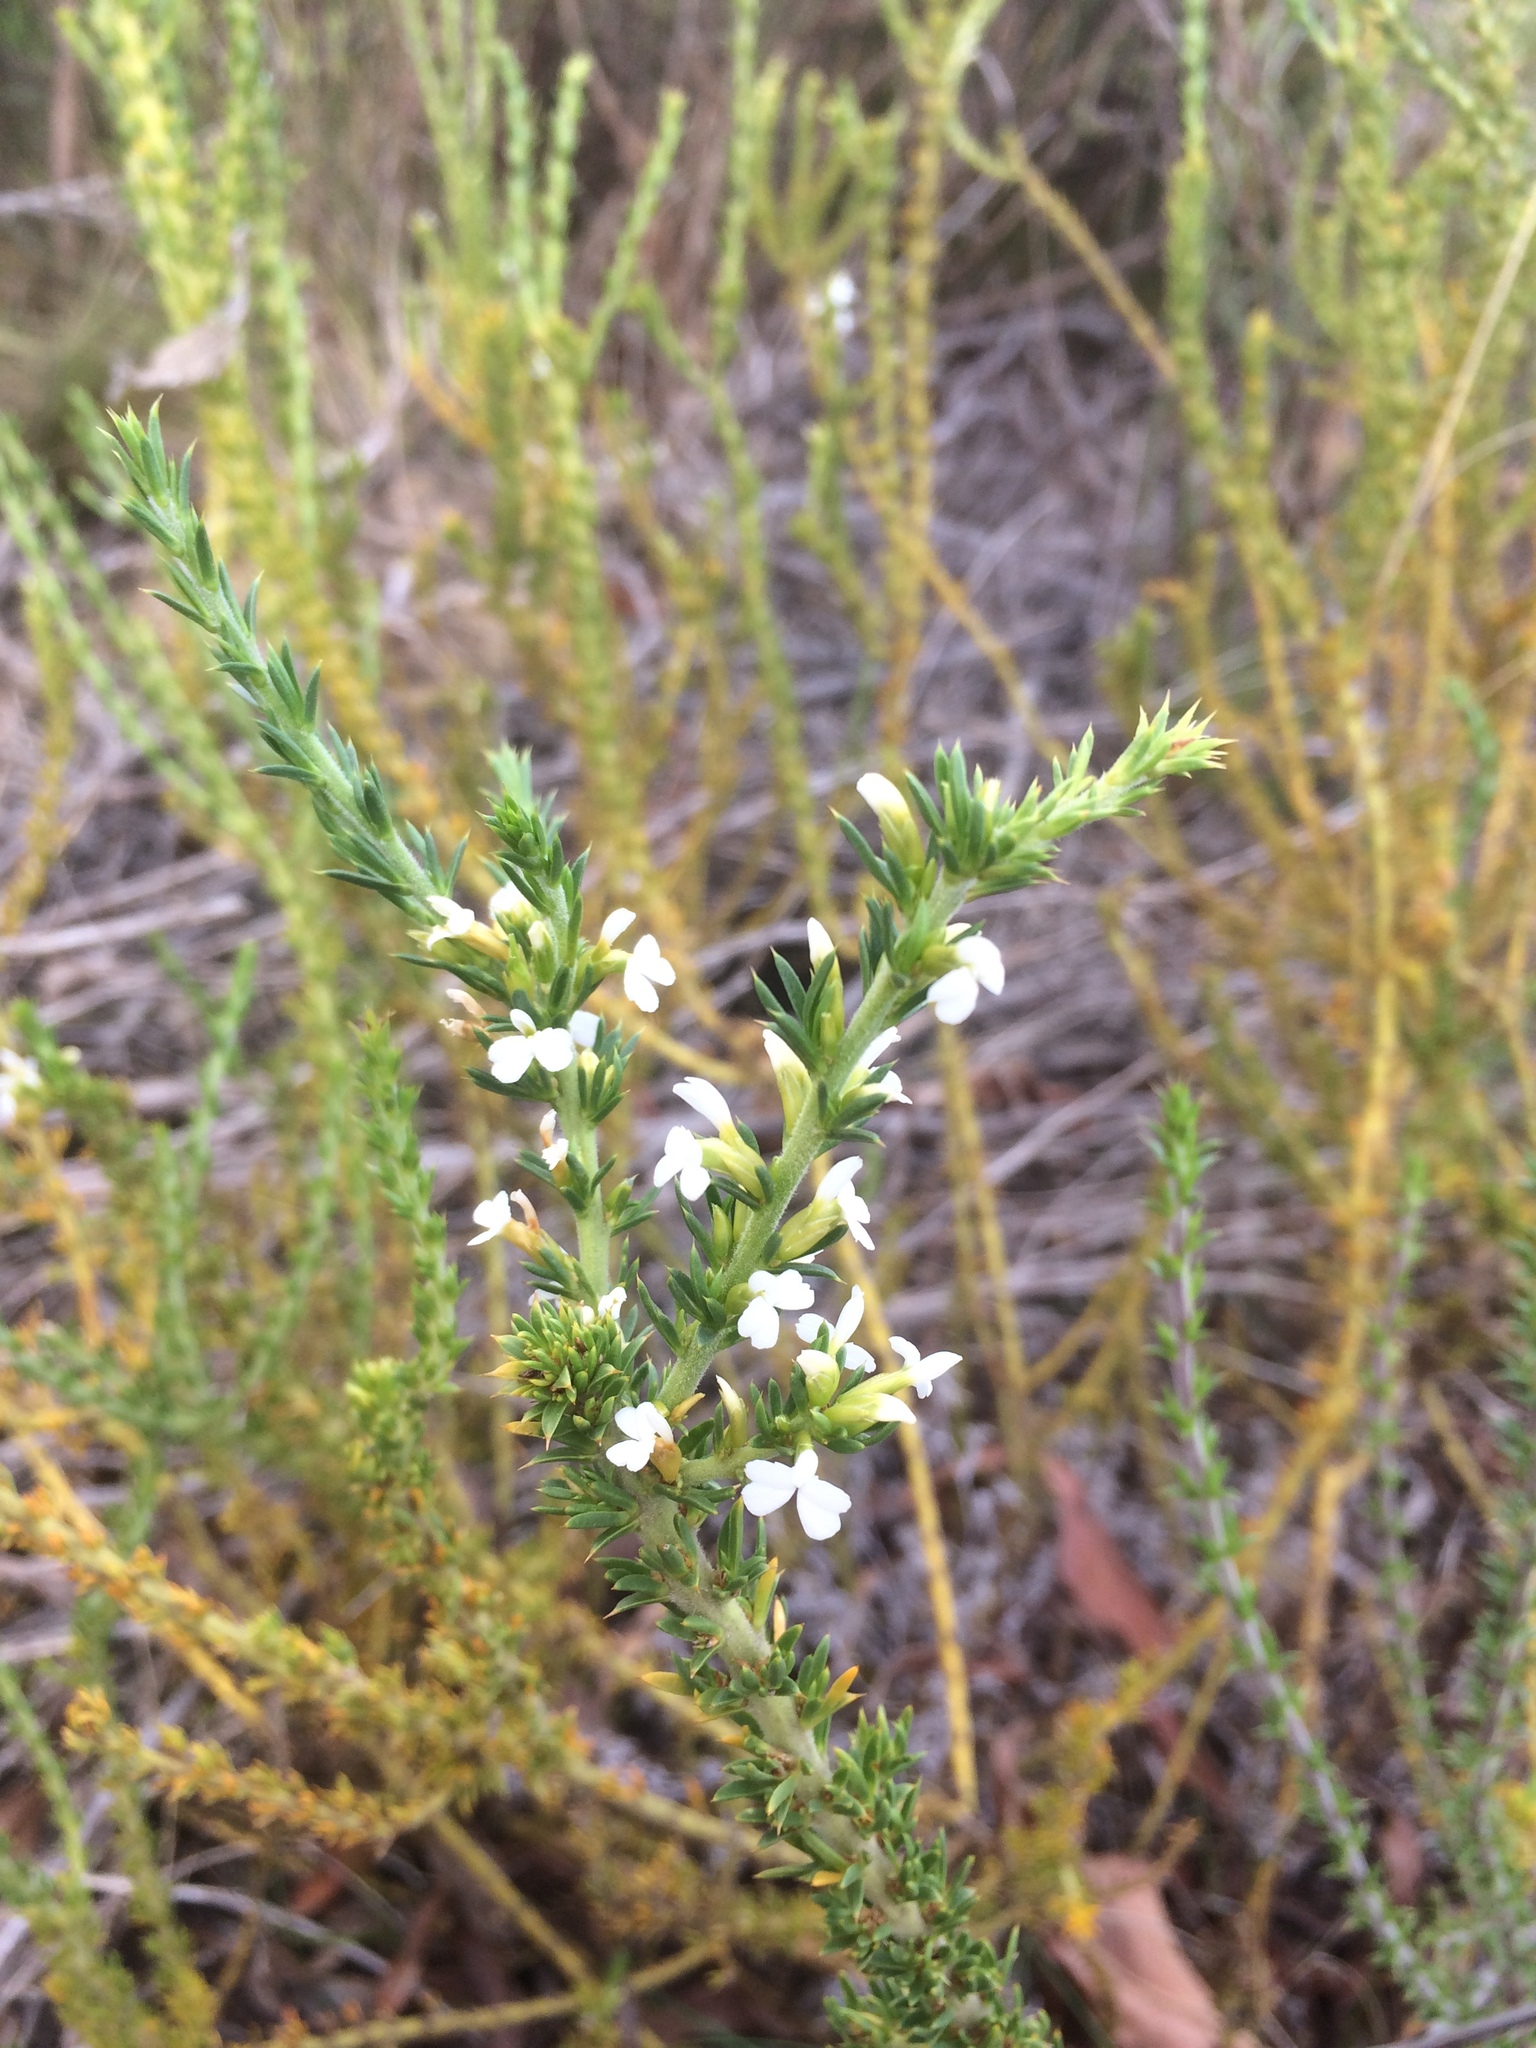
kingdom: Plantae
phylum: Tracheophyta
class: Magnoliopsida
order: Fabales
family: Polygalaceae
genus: Muraltia
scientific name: Muraltia heisteria
